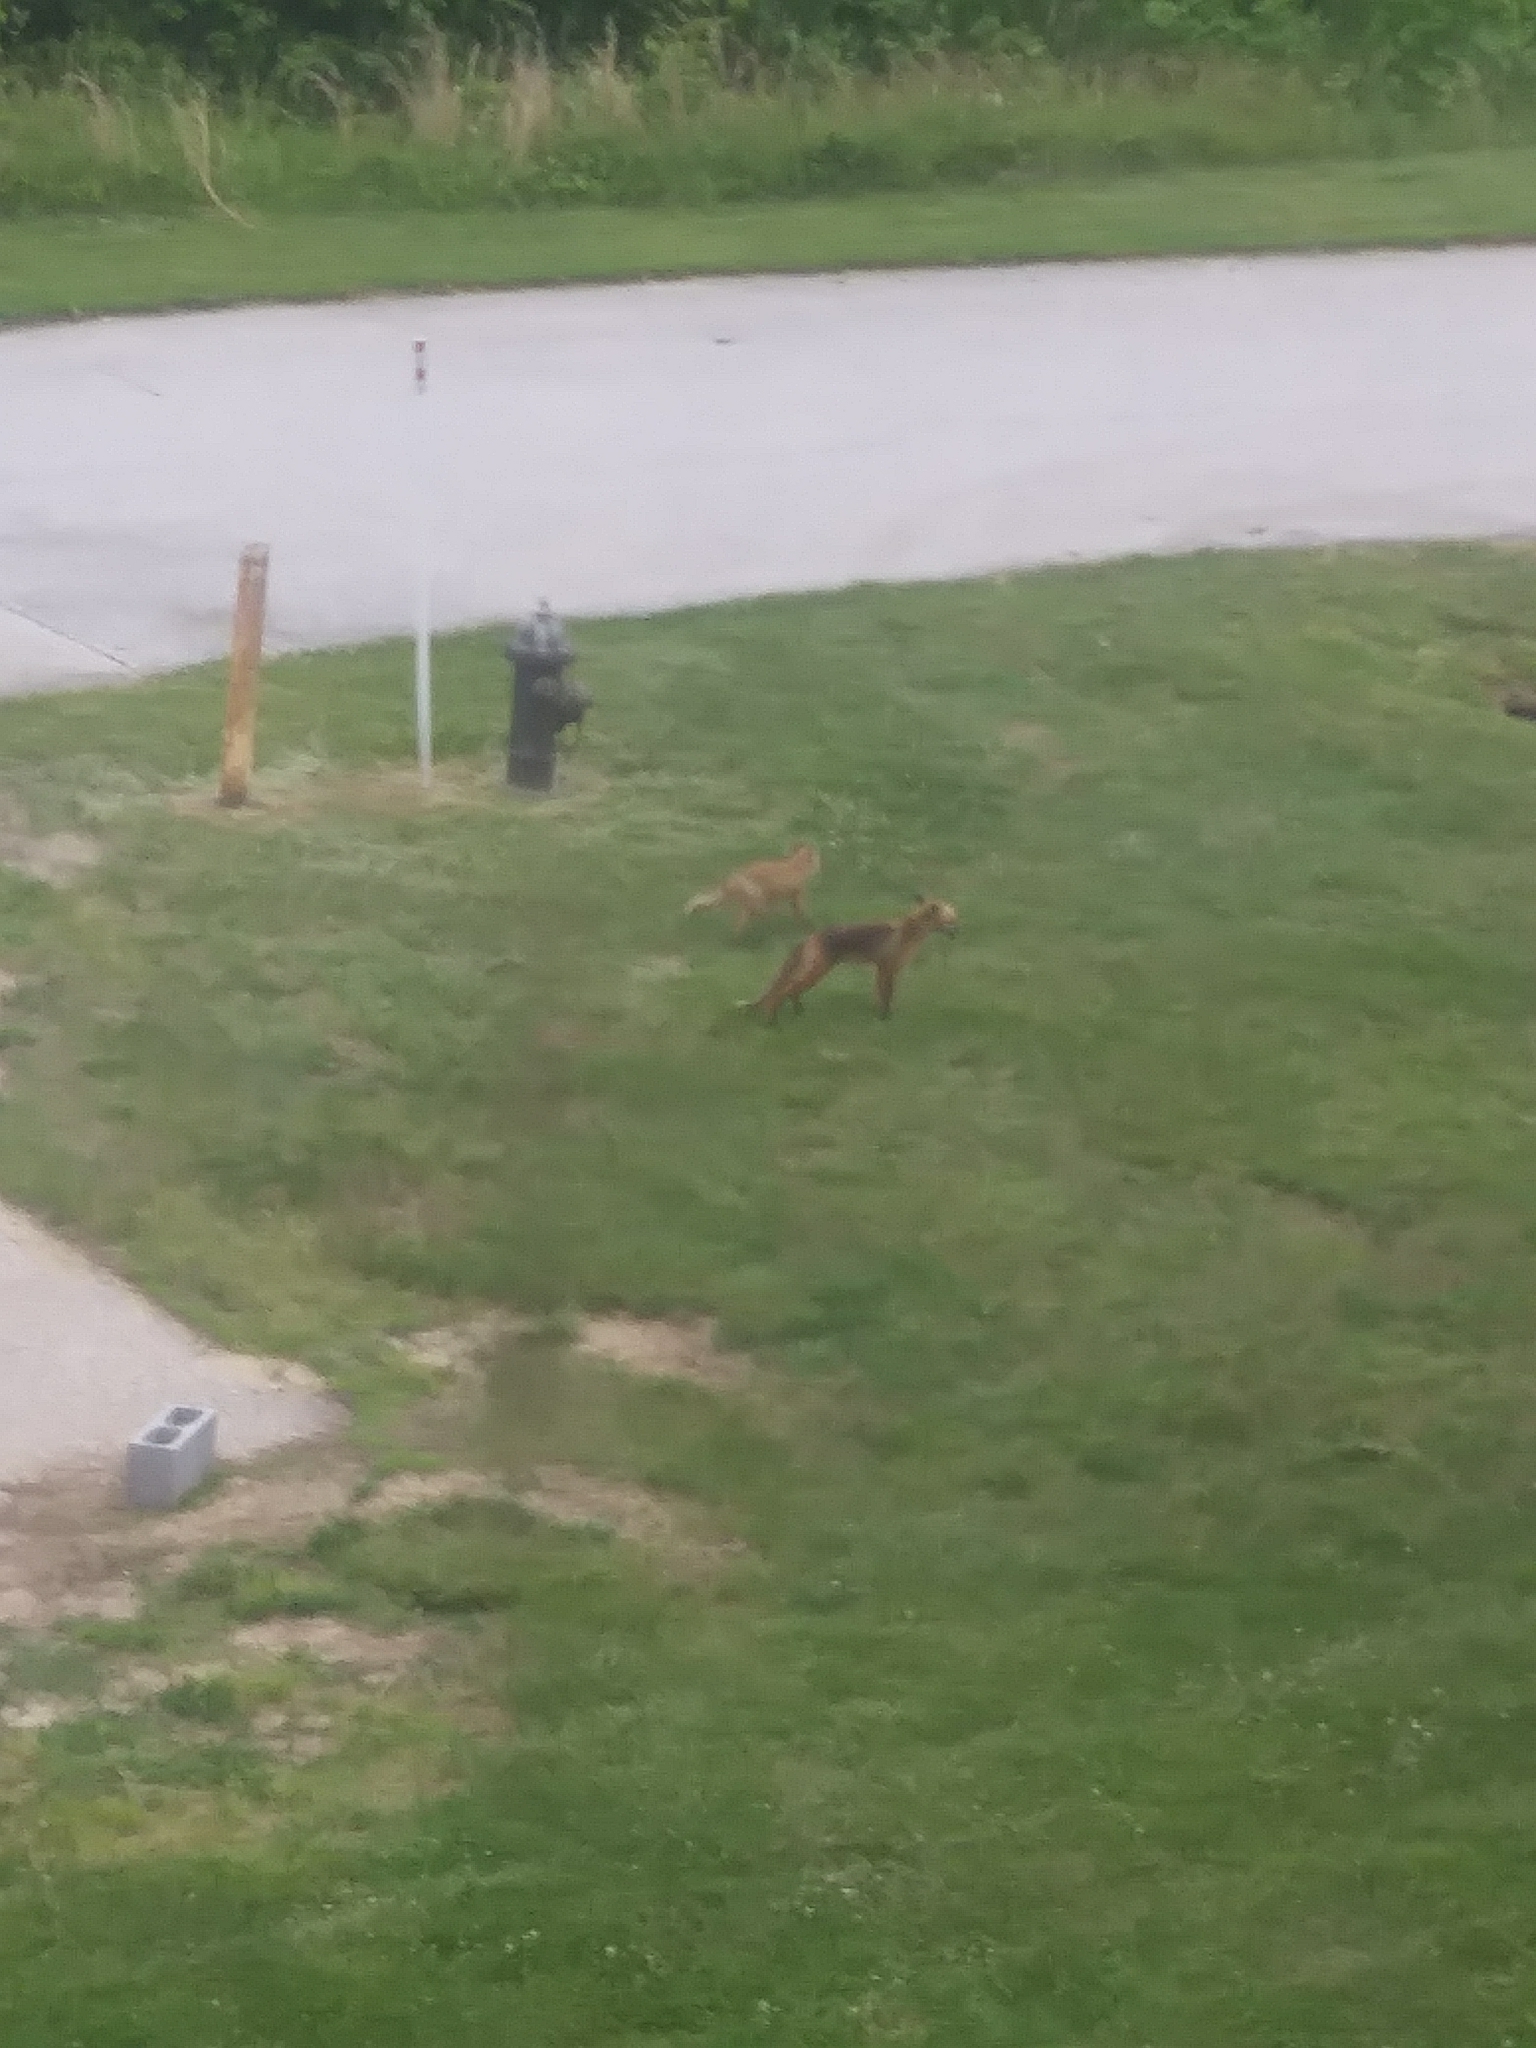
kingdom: Animalia
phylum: Chordata
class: Mammalia
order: Carnivora
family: Canidae
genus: Vulpes
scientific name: Vulpes vulpes
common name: Red fox
